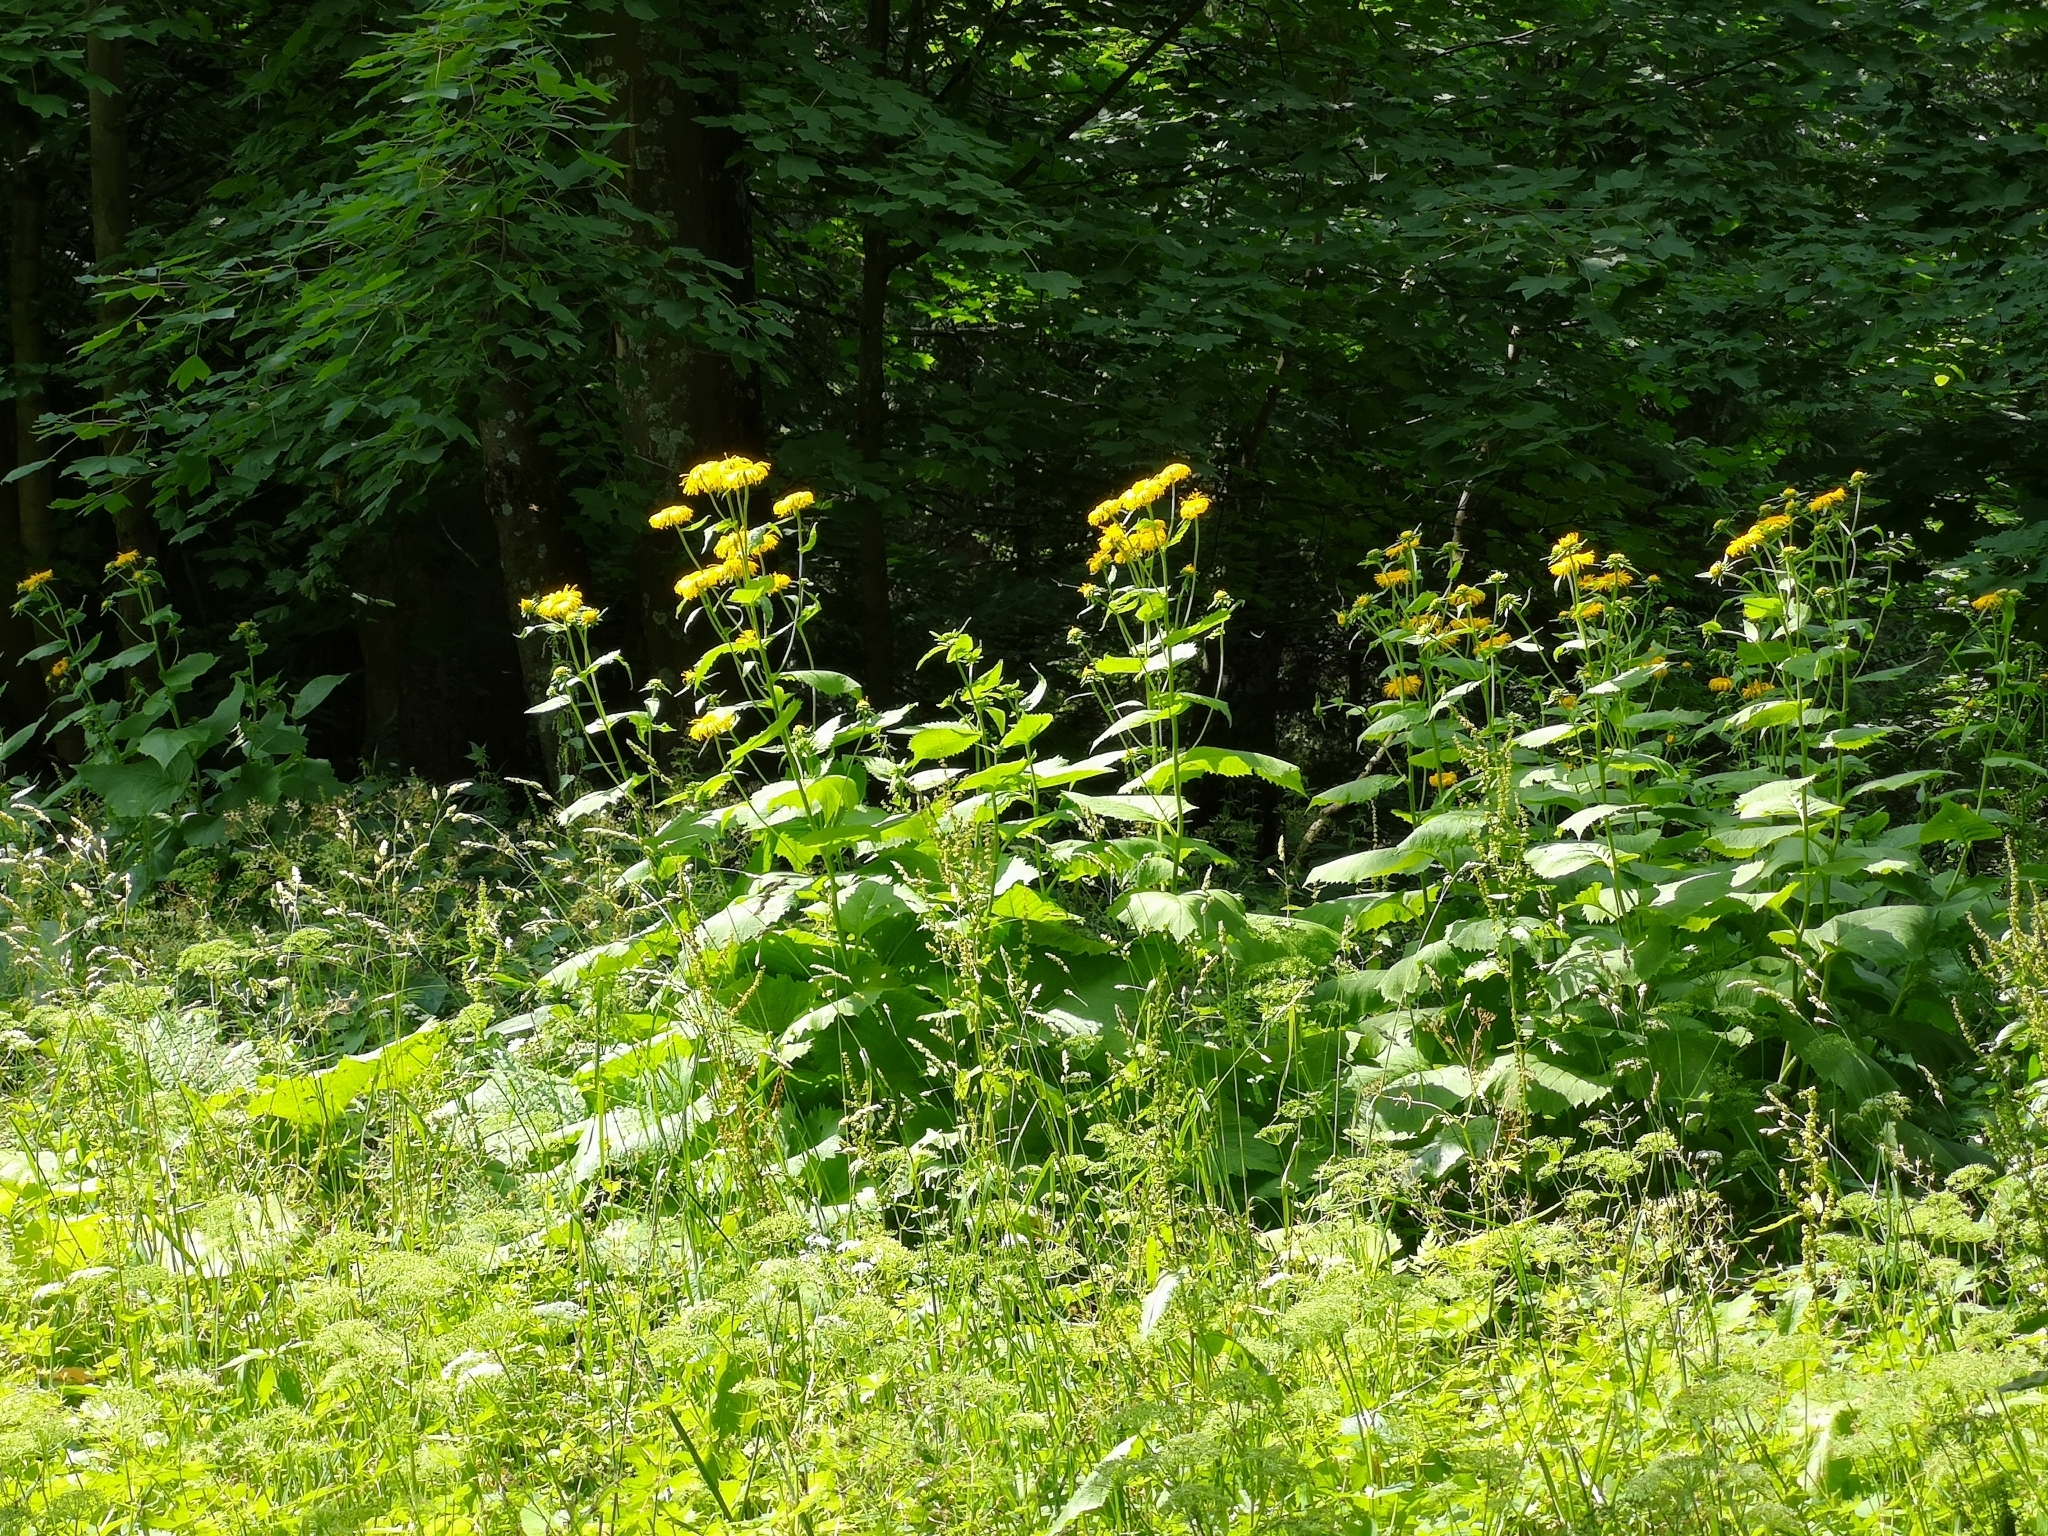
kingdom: Plantae
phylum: Tracheophyta
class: Magnoliopsida
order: Asterales
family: Asteraceae
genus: Telekia
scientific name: Telekia speciosa
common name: Yellow oxeye
